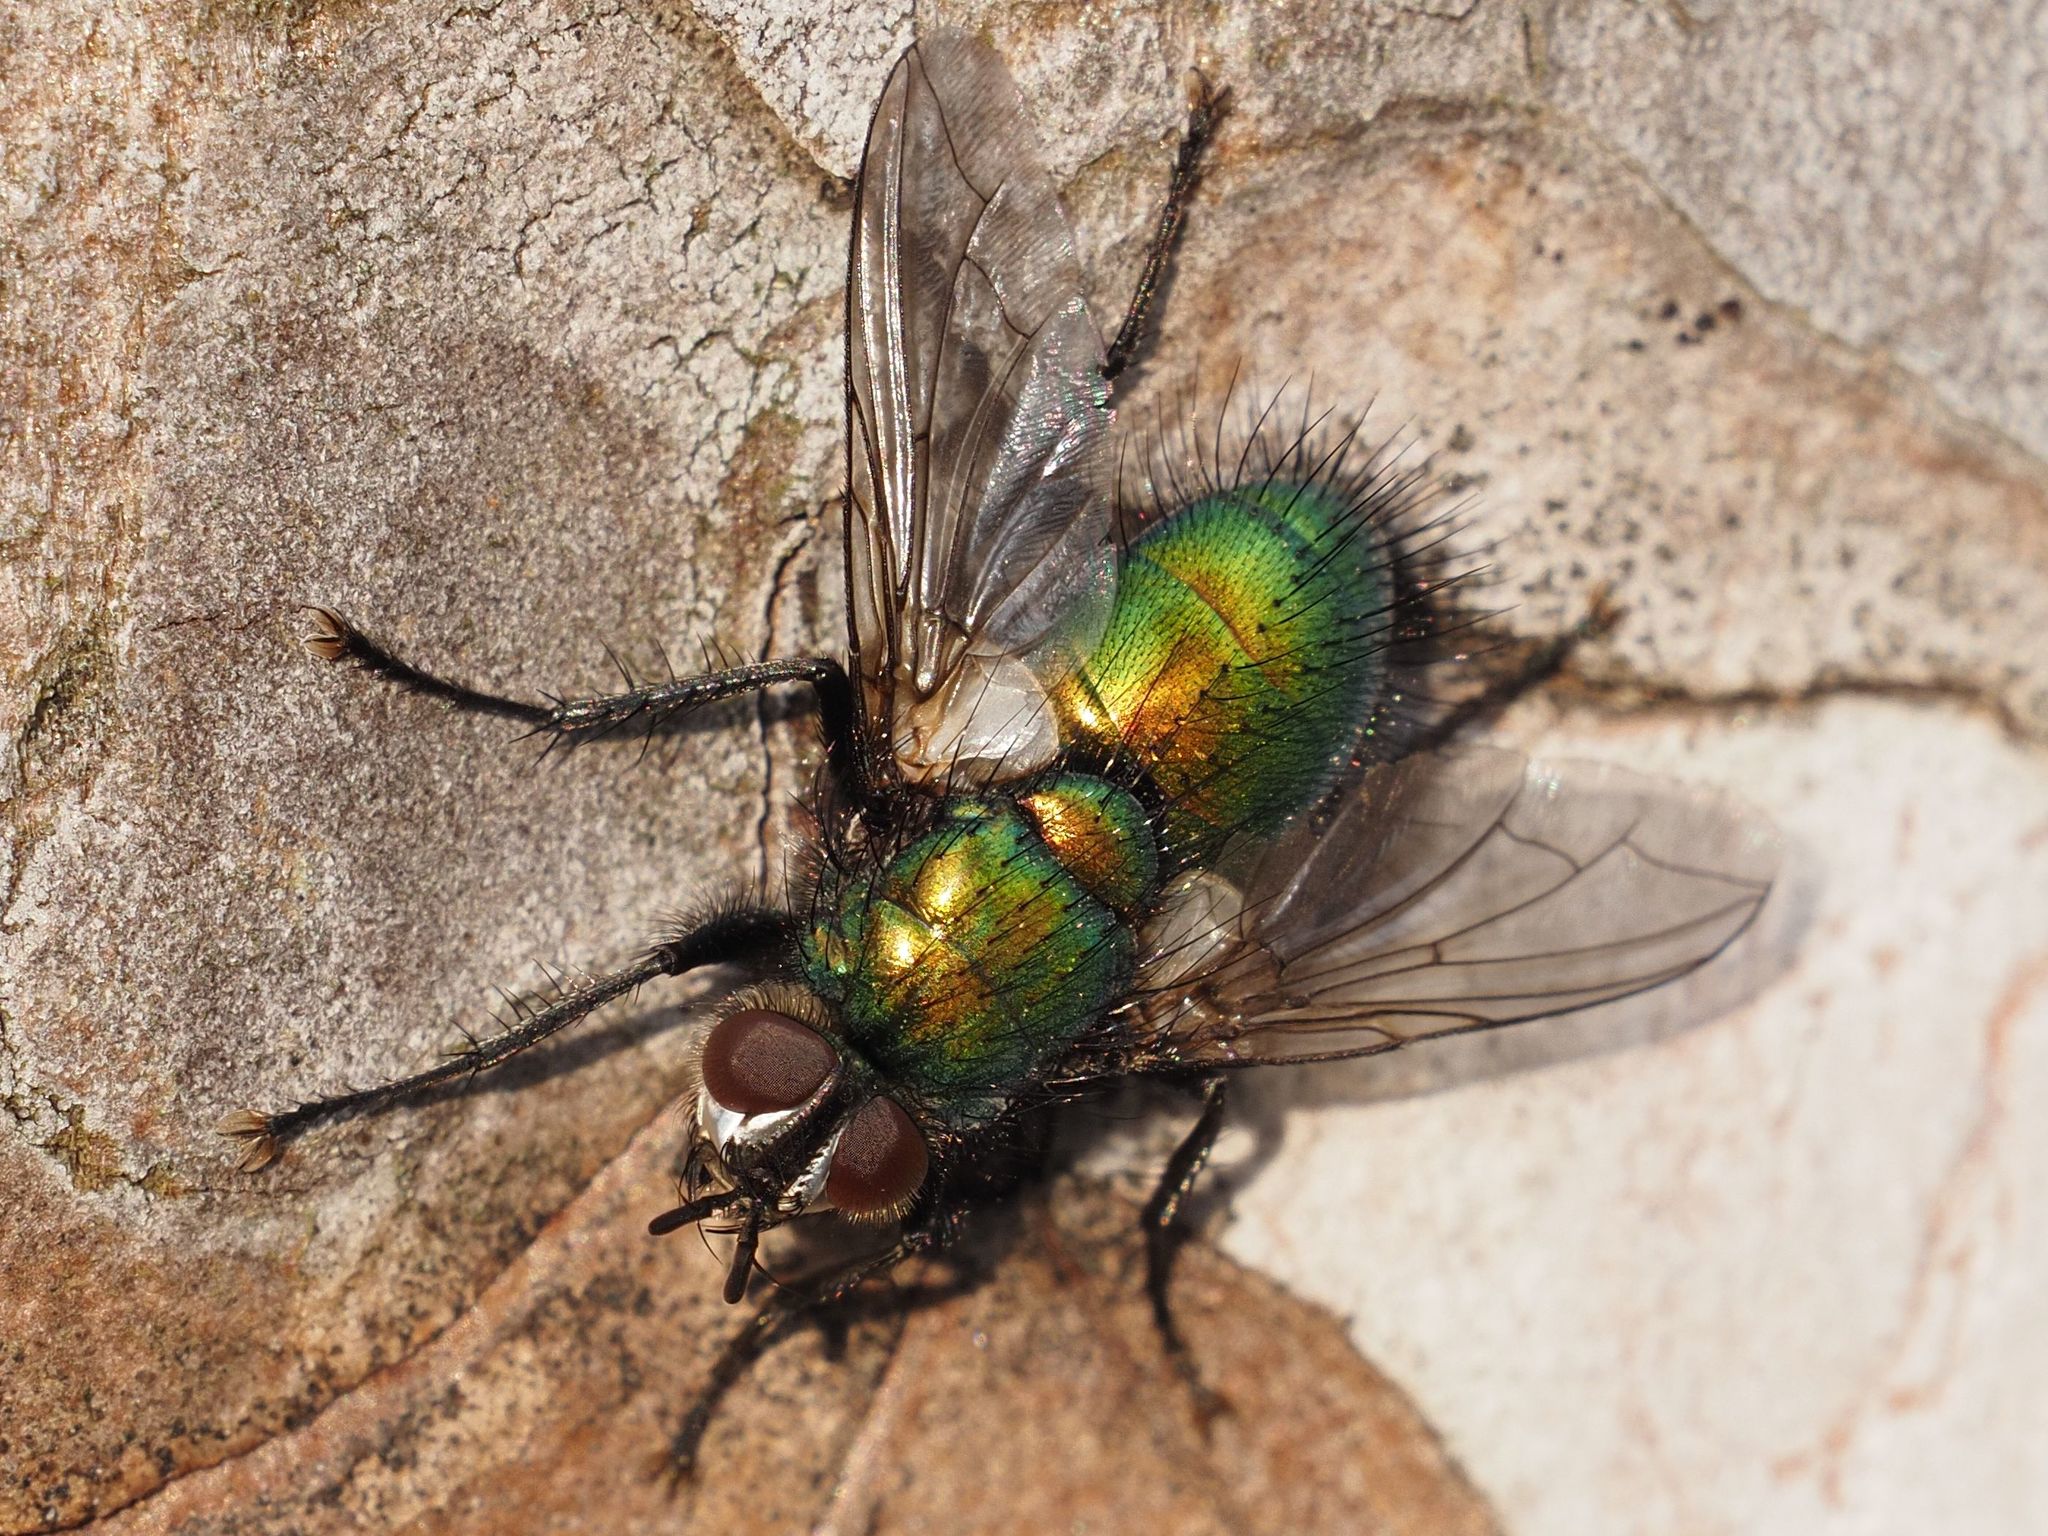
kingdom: Animalia
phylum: Arthropoda
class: Insecta
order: Diptera
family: Tachinidae
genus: Gymnocheta
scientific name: Gymnocheta viridis
